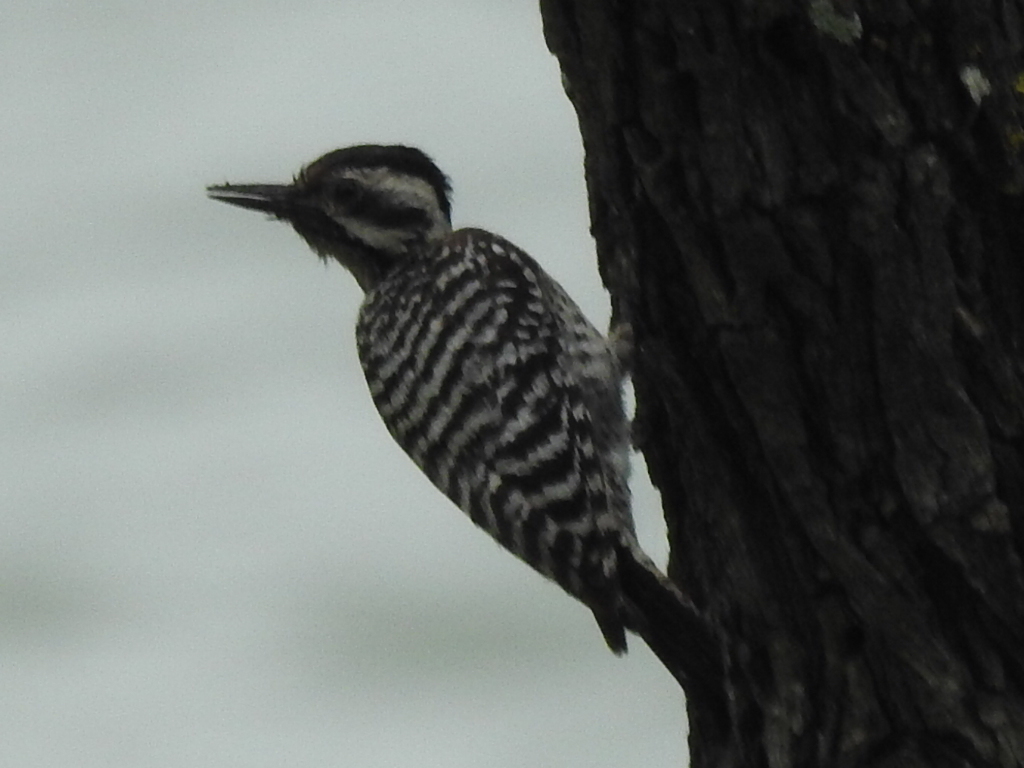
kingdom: Animalia
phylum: Chordata
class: Aves
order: Piciformes
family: Picidae
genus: Dryobates
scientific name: Dryobates scalaris
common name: Ladder-backed woodpecker
